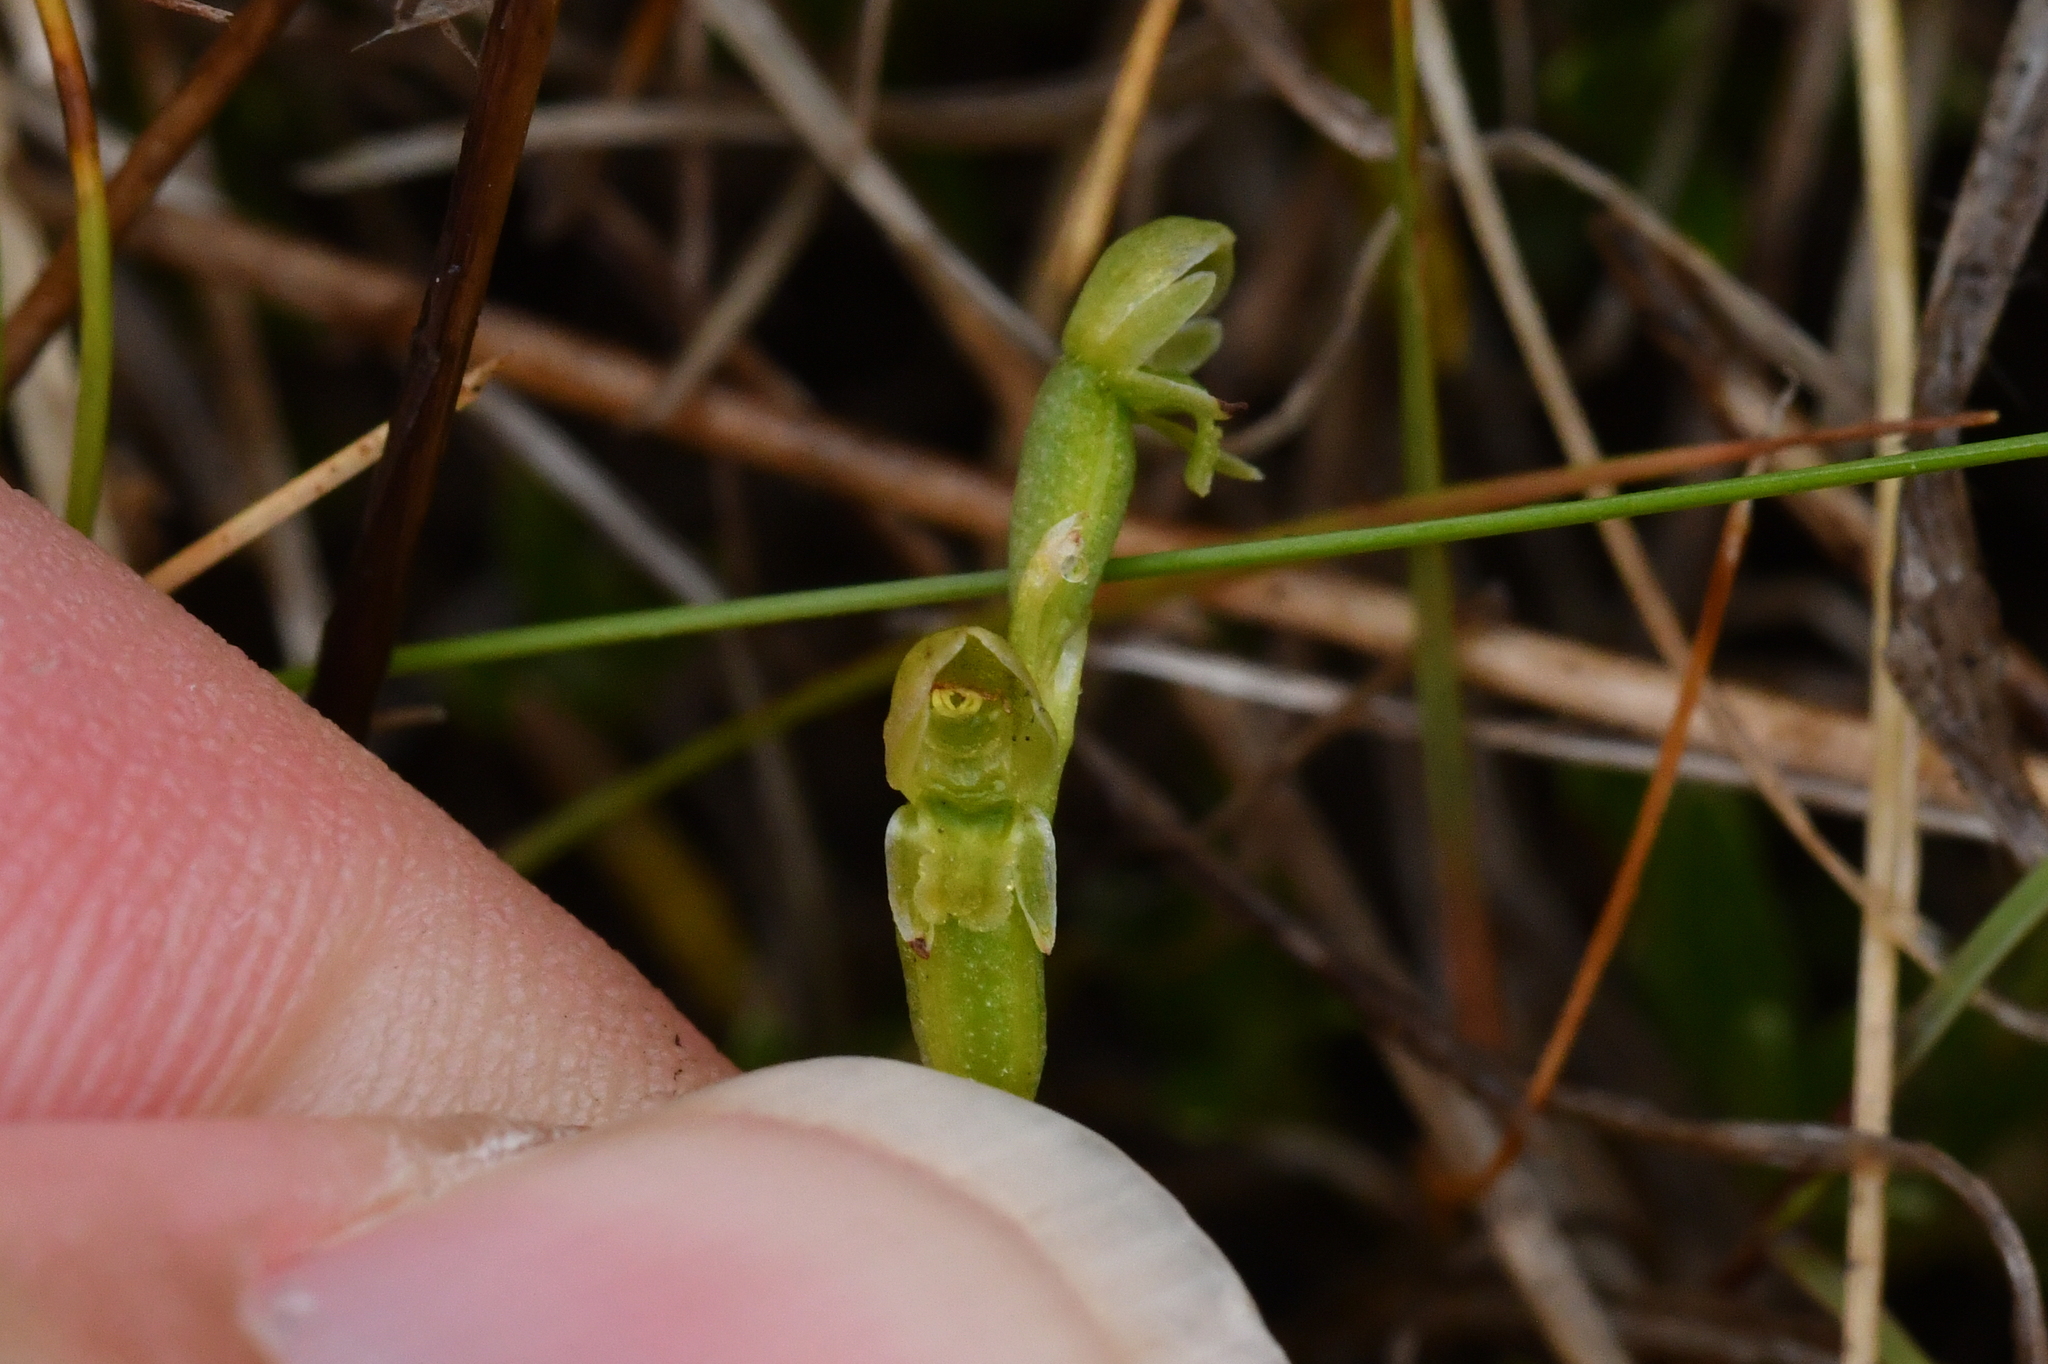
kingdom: Plantae
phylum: Tracheophyta
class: Liliopsida
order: Asparagales
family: Orchidaceae
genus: Microtis
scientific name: Microtis oligantha
